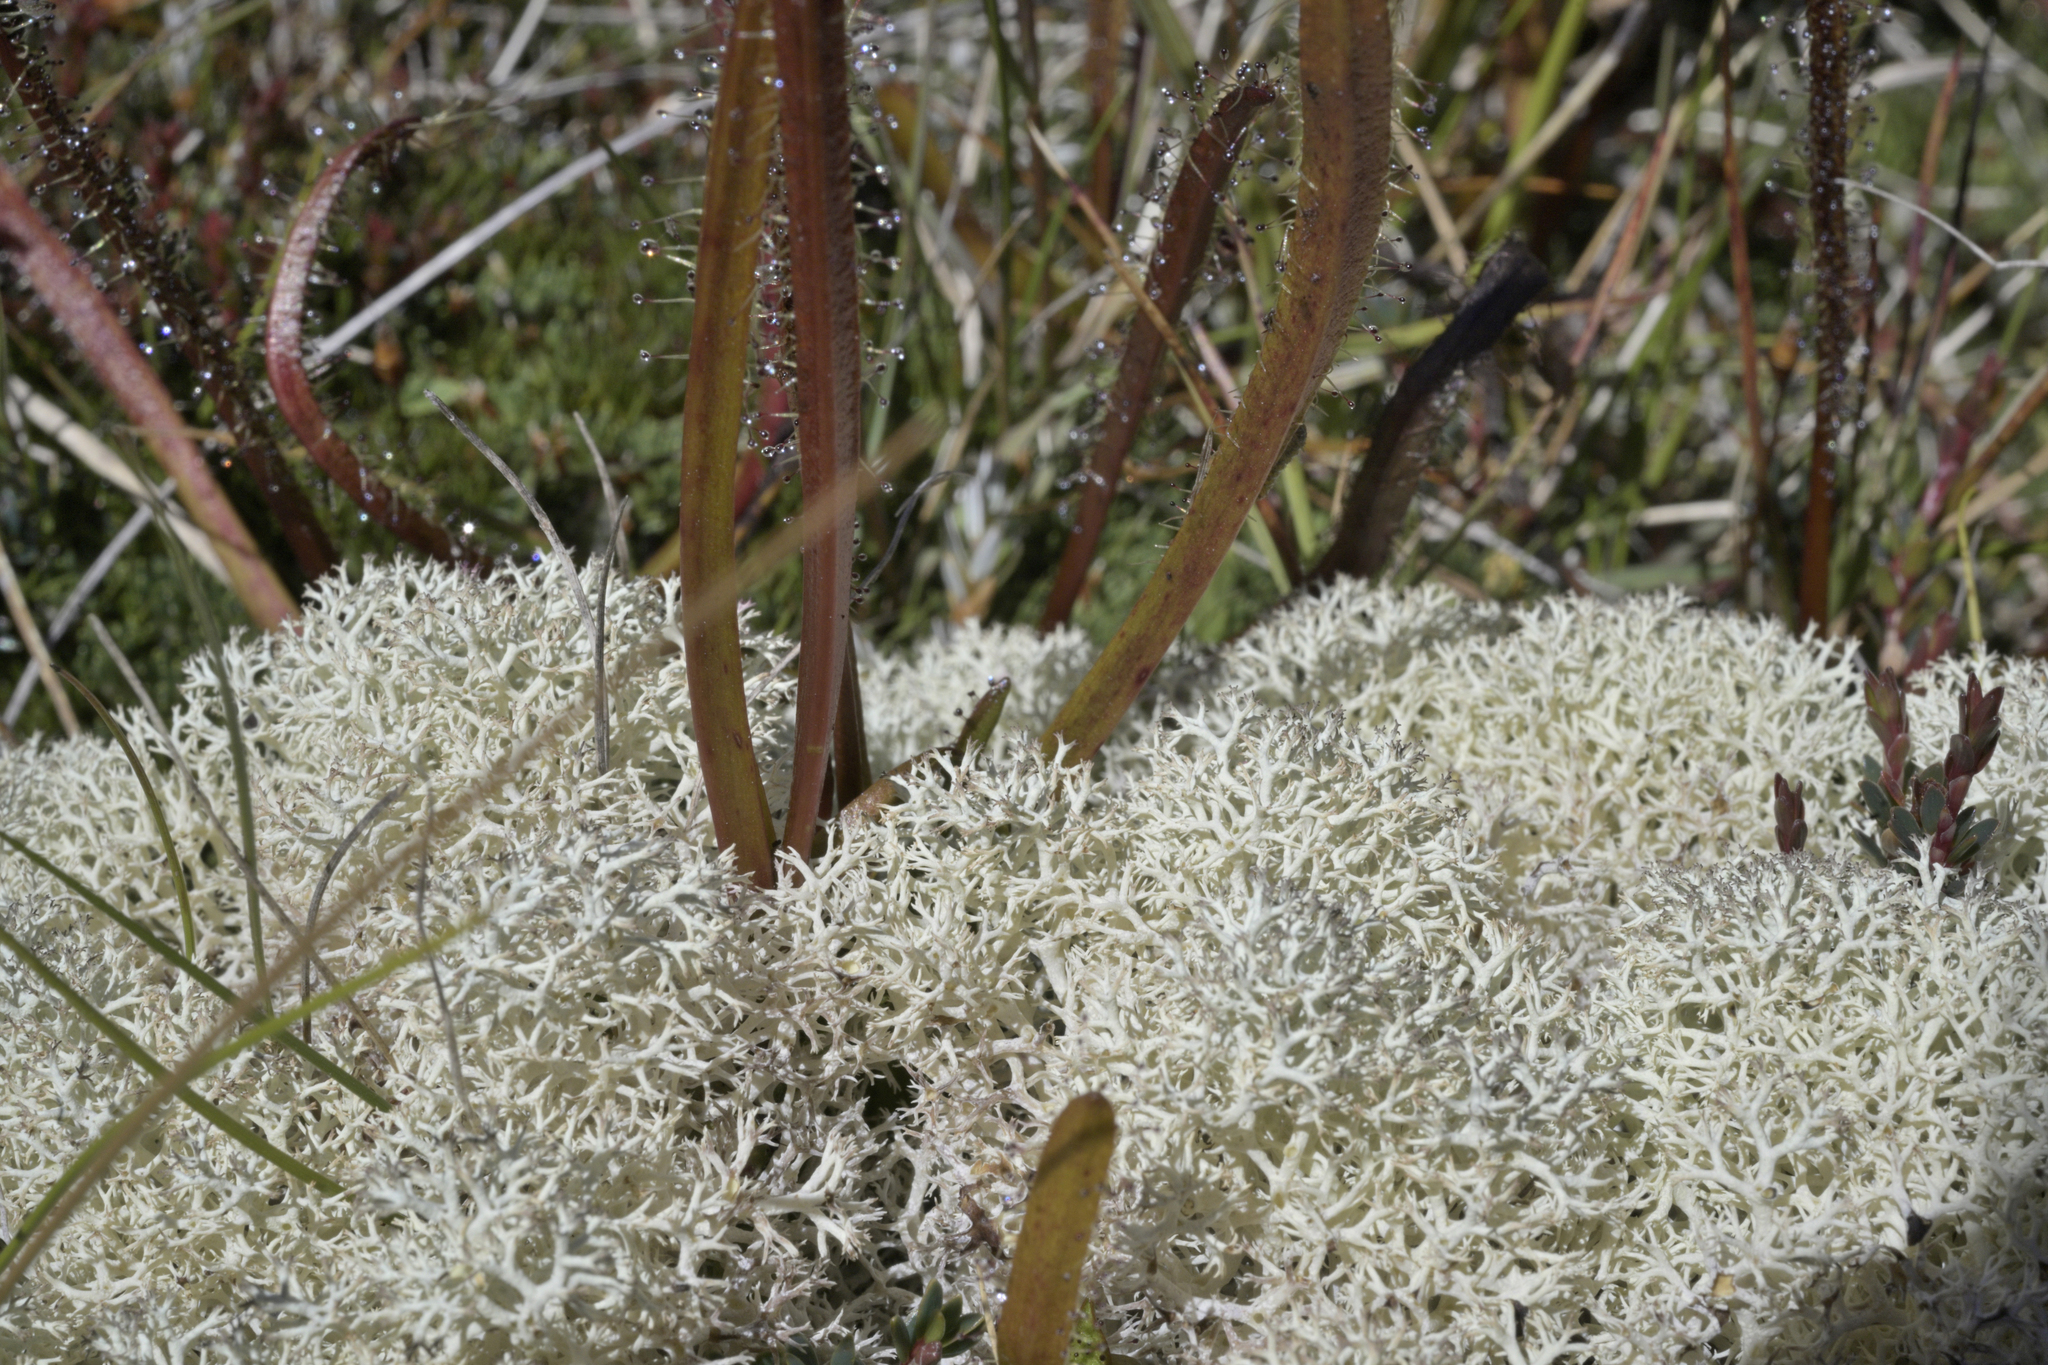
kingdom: Fungi
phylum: Ascomycota
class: Lecanoromycetes
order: Lecanorales
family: Cladoniaceae
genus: Cladonia
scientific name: Cladonia mitis
